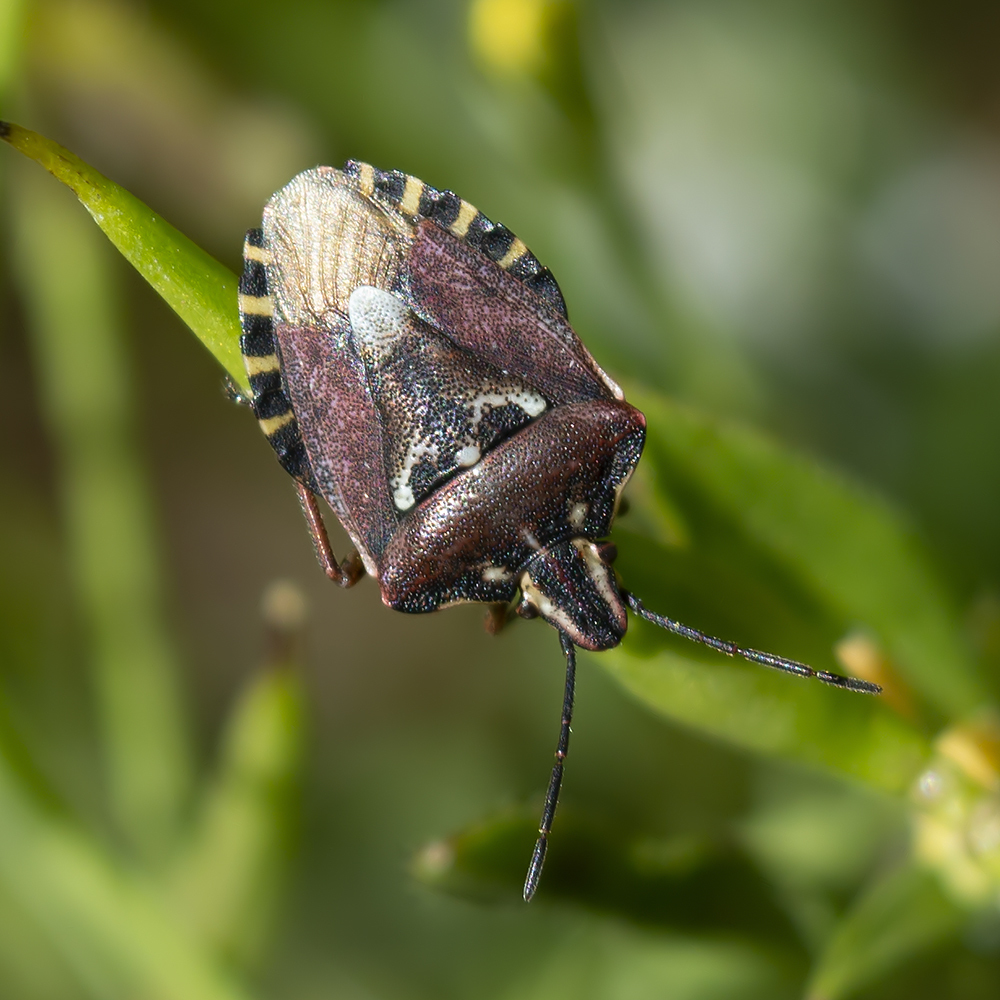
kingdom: Animalia
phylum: Arthropoda
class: Insecta
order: Hemiptera
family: Miridae
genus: Orthops
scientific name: Orthops kalmii
